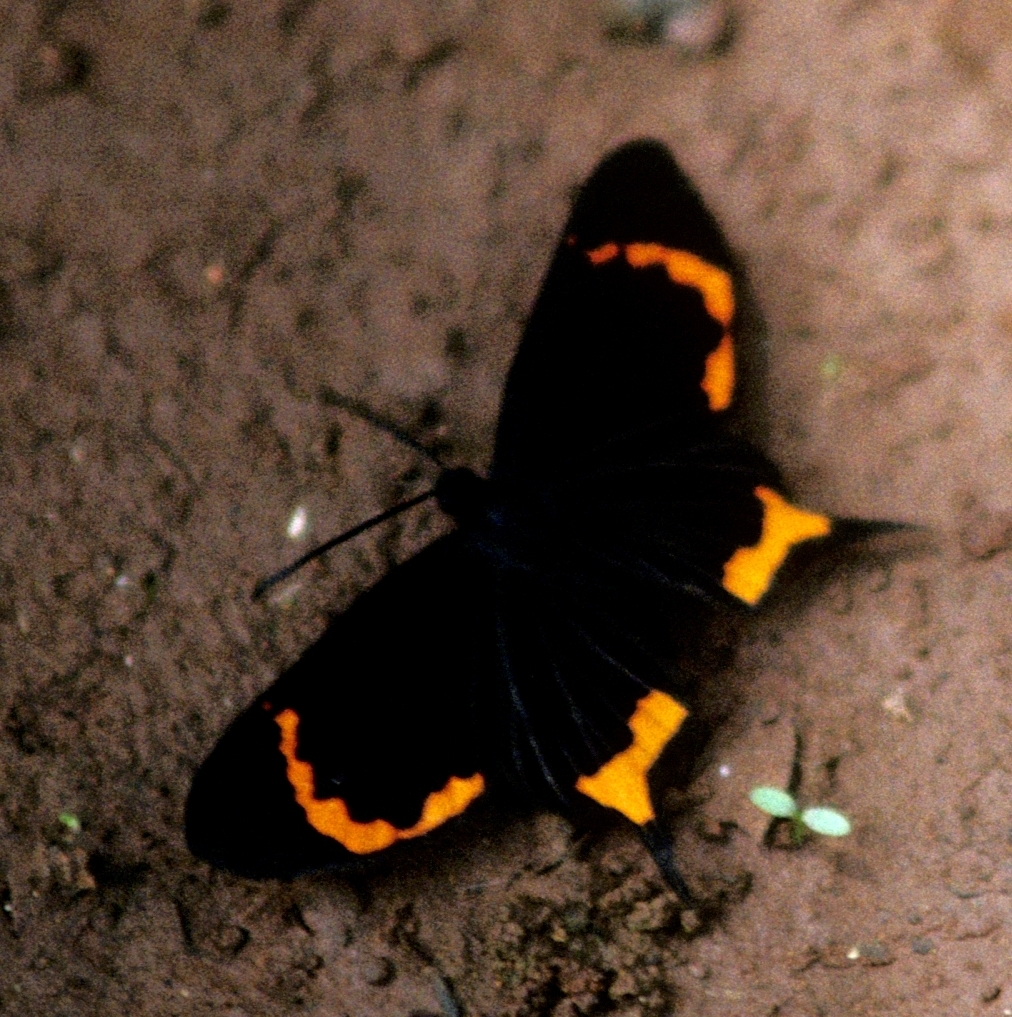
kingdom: Animalia
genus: Barbicornis
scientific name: Barbicornis basilis
